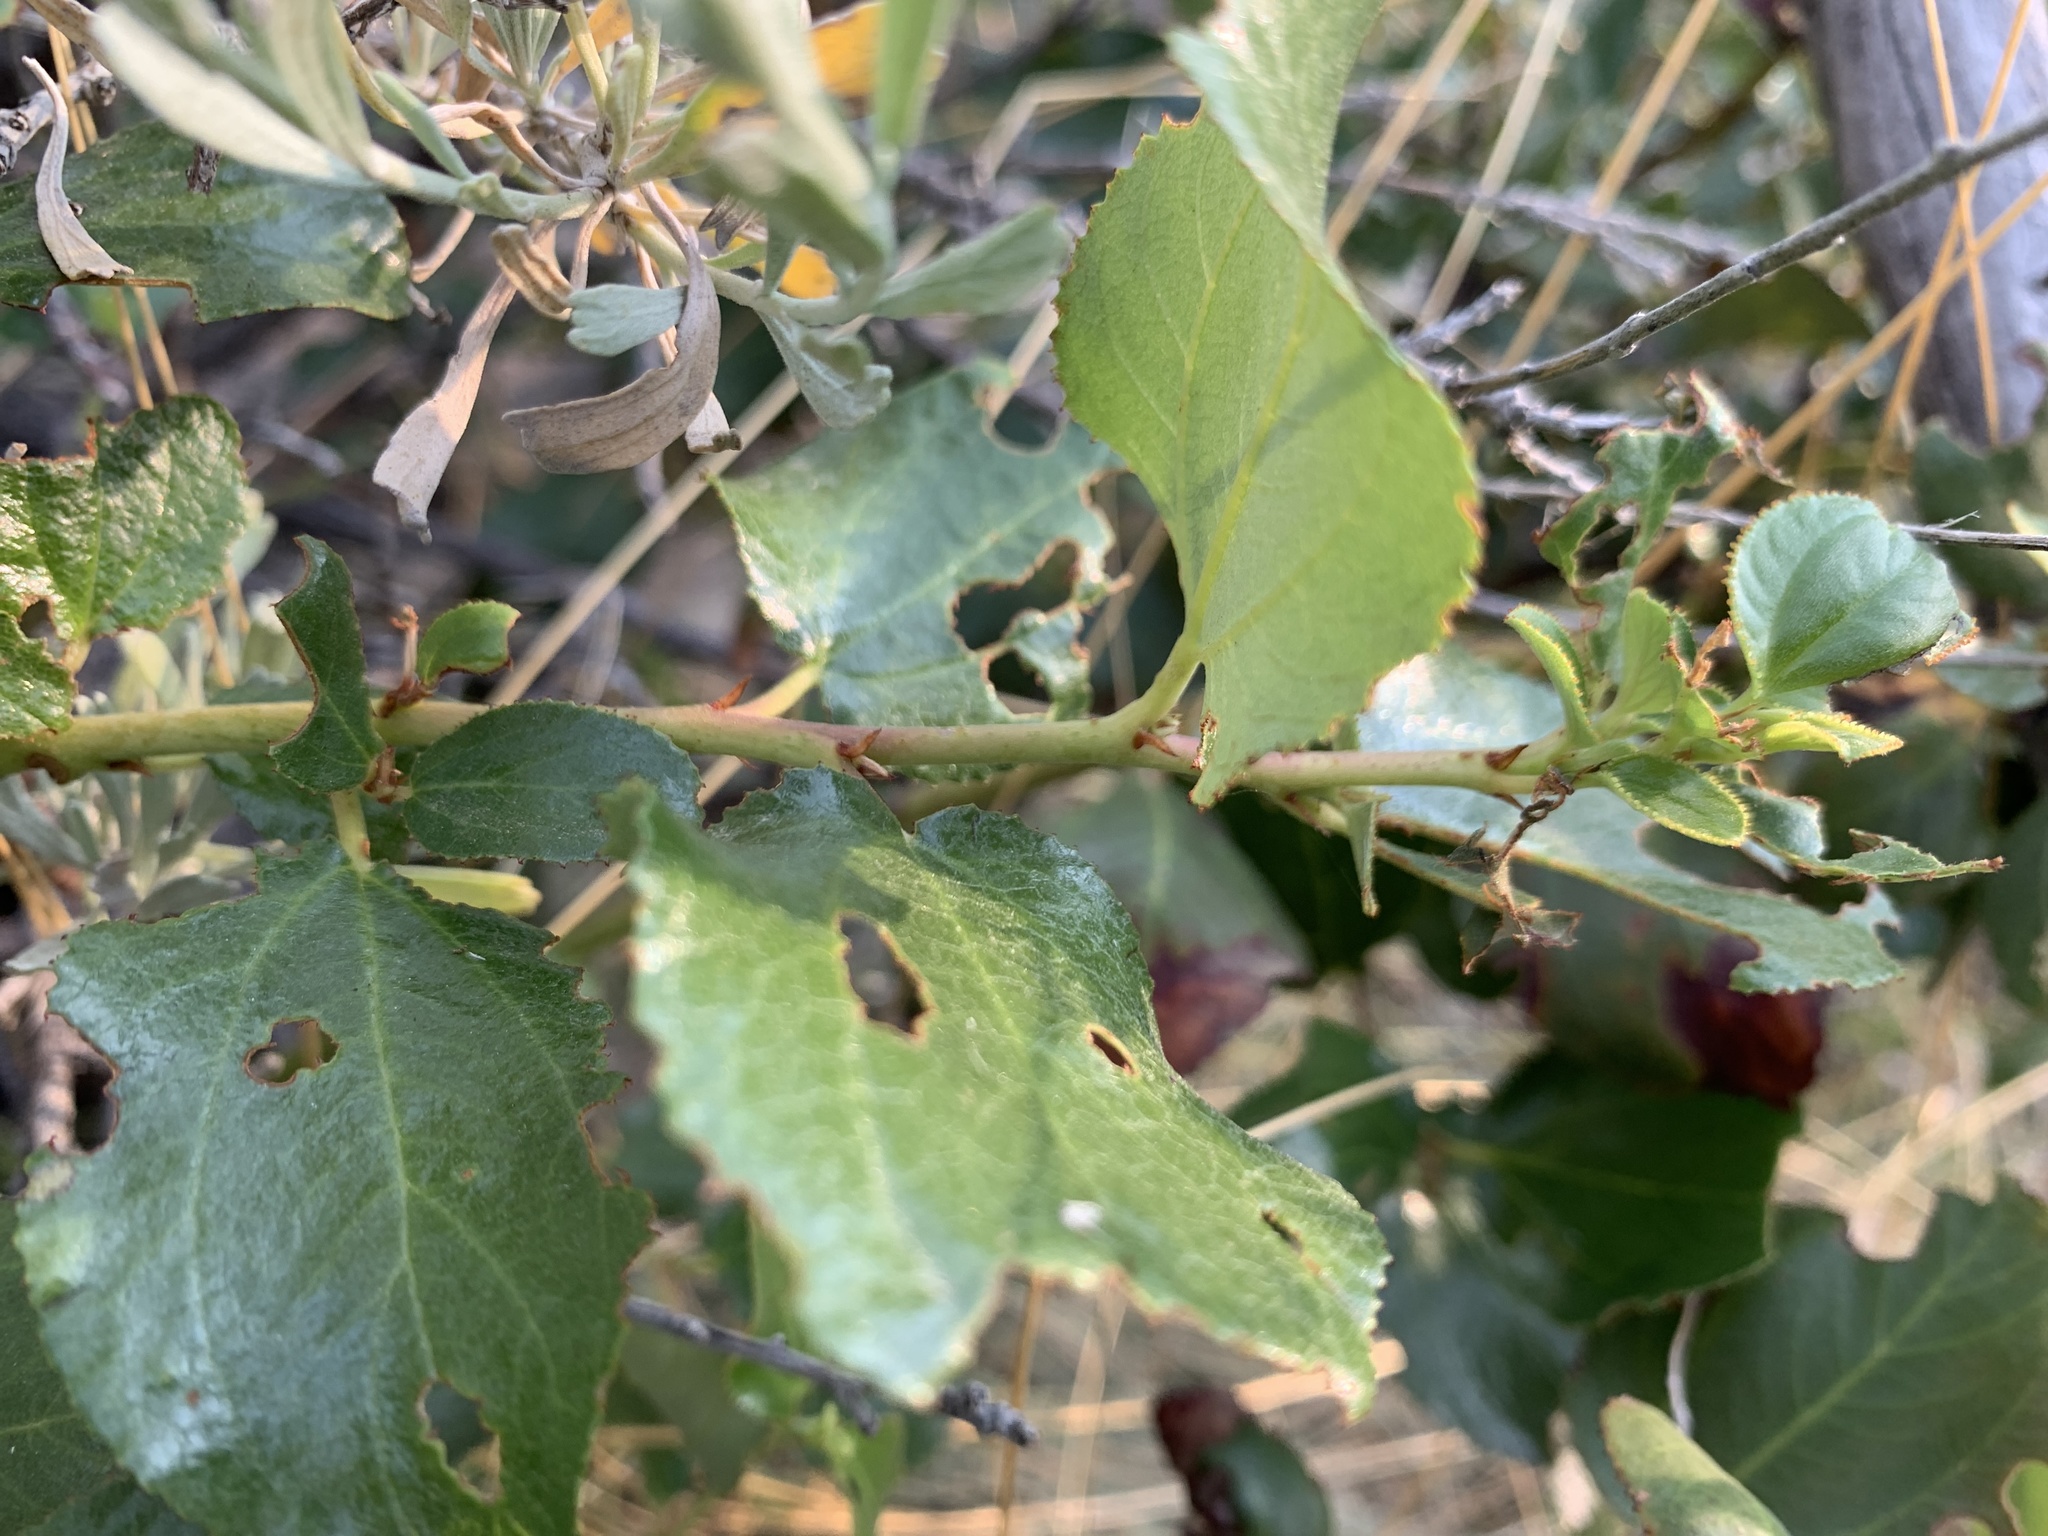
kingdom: Plantae
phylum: Tracheophyta
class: Magnoliopsida
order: Rosales
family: Rhamnaceae
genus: Ceanothus
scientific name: Ceanothus velutinus
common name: Snowbrush
